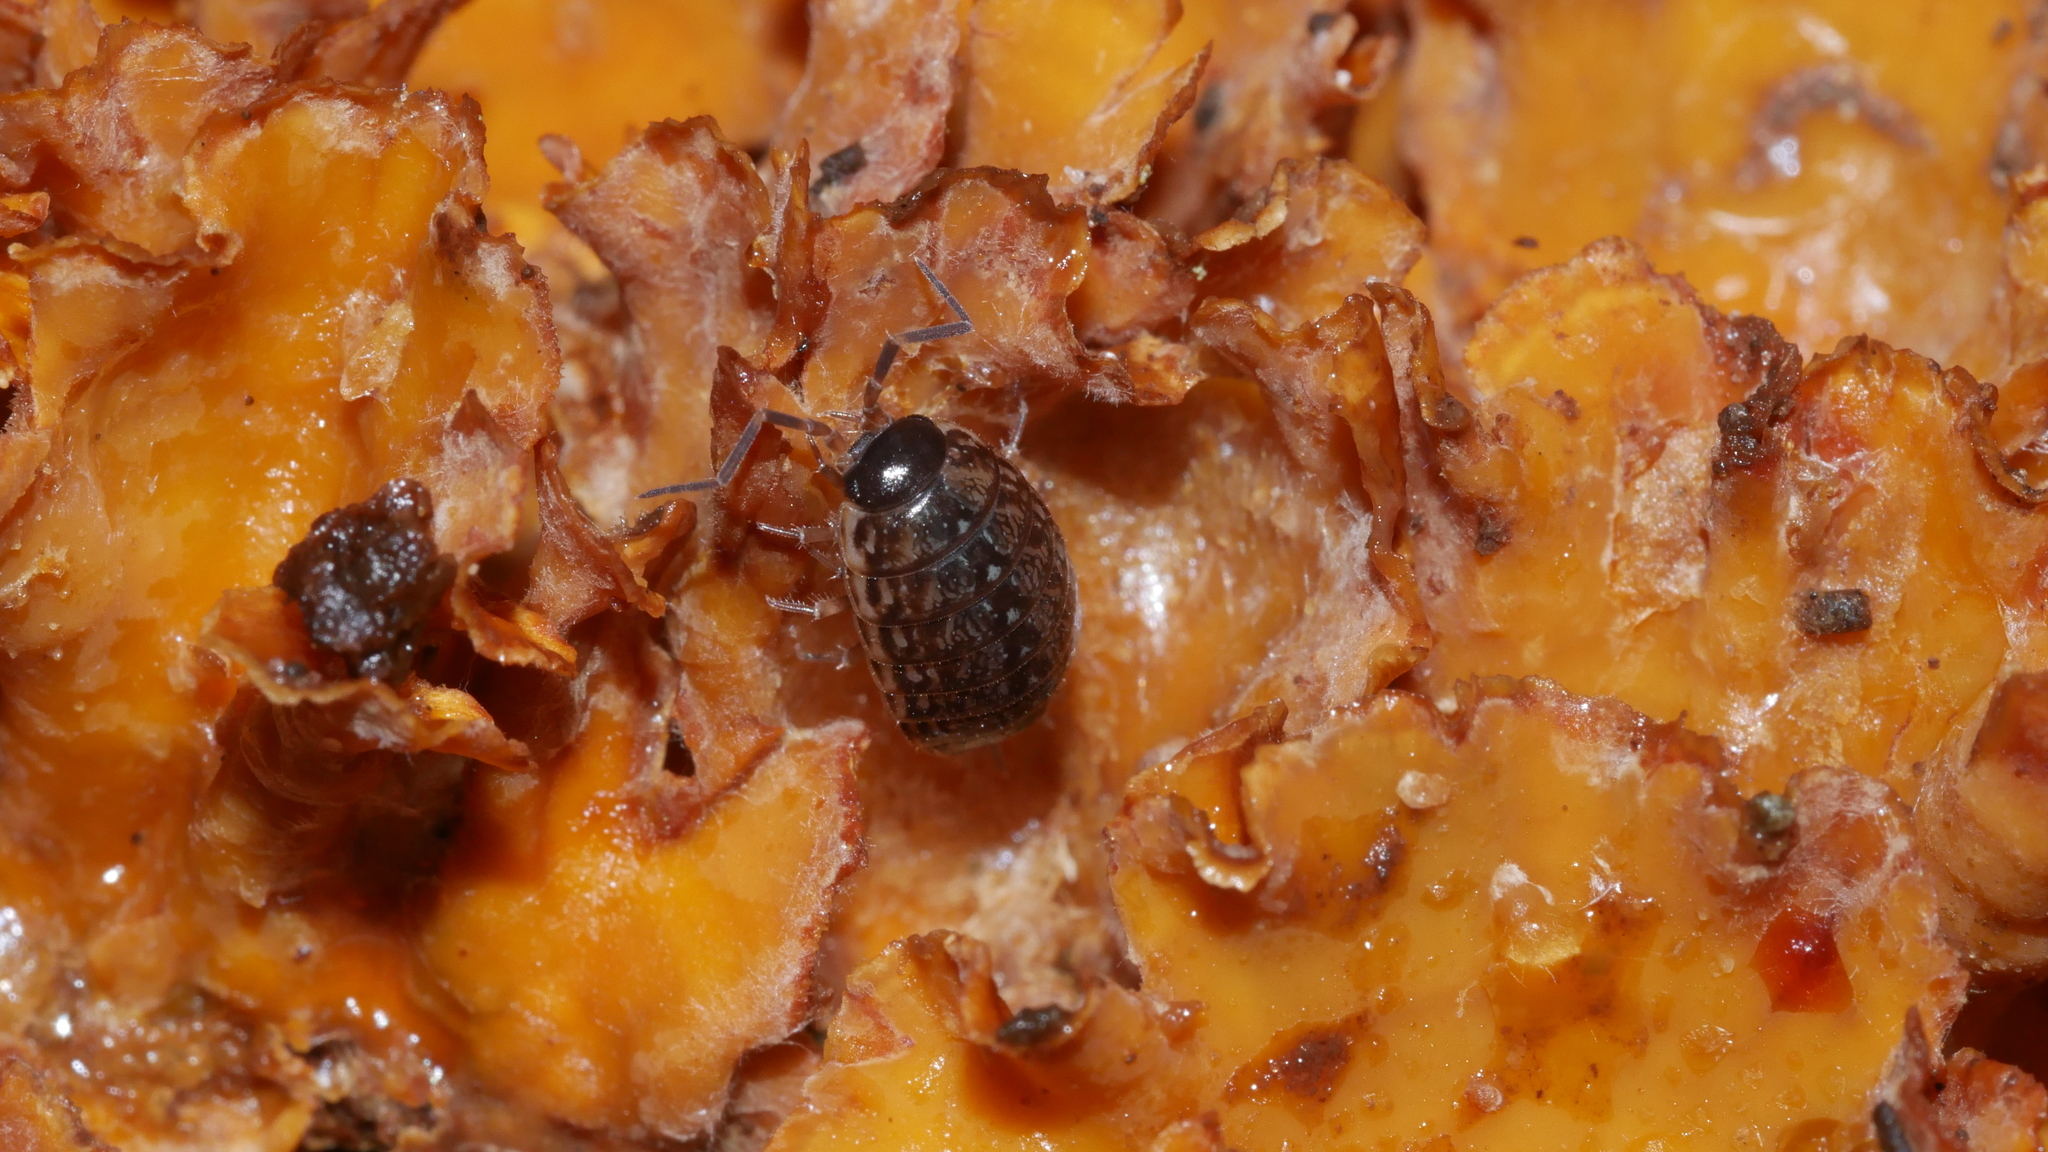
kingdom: Animalia
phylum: Arthropoda
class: Malacostraca
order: Isopoda
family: Philosciidae
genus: Philoscia
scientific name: Philoscia muscorum
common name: Common striped woodlouse
